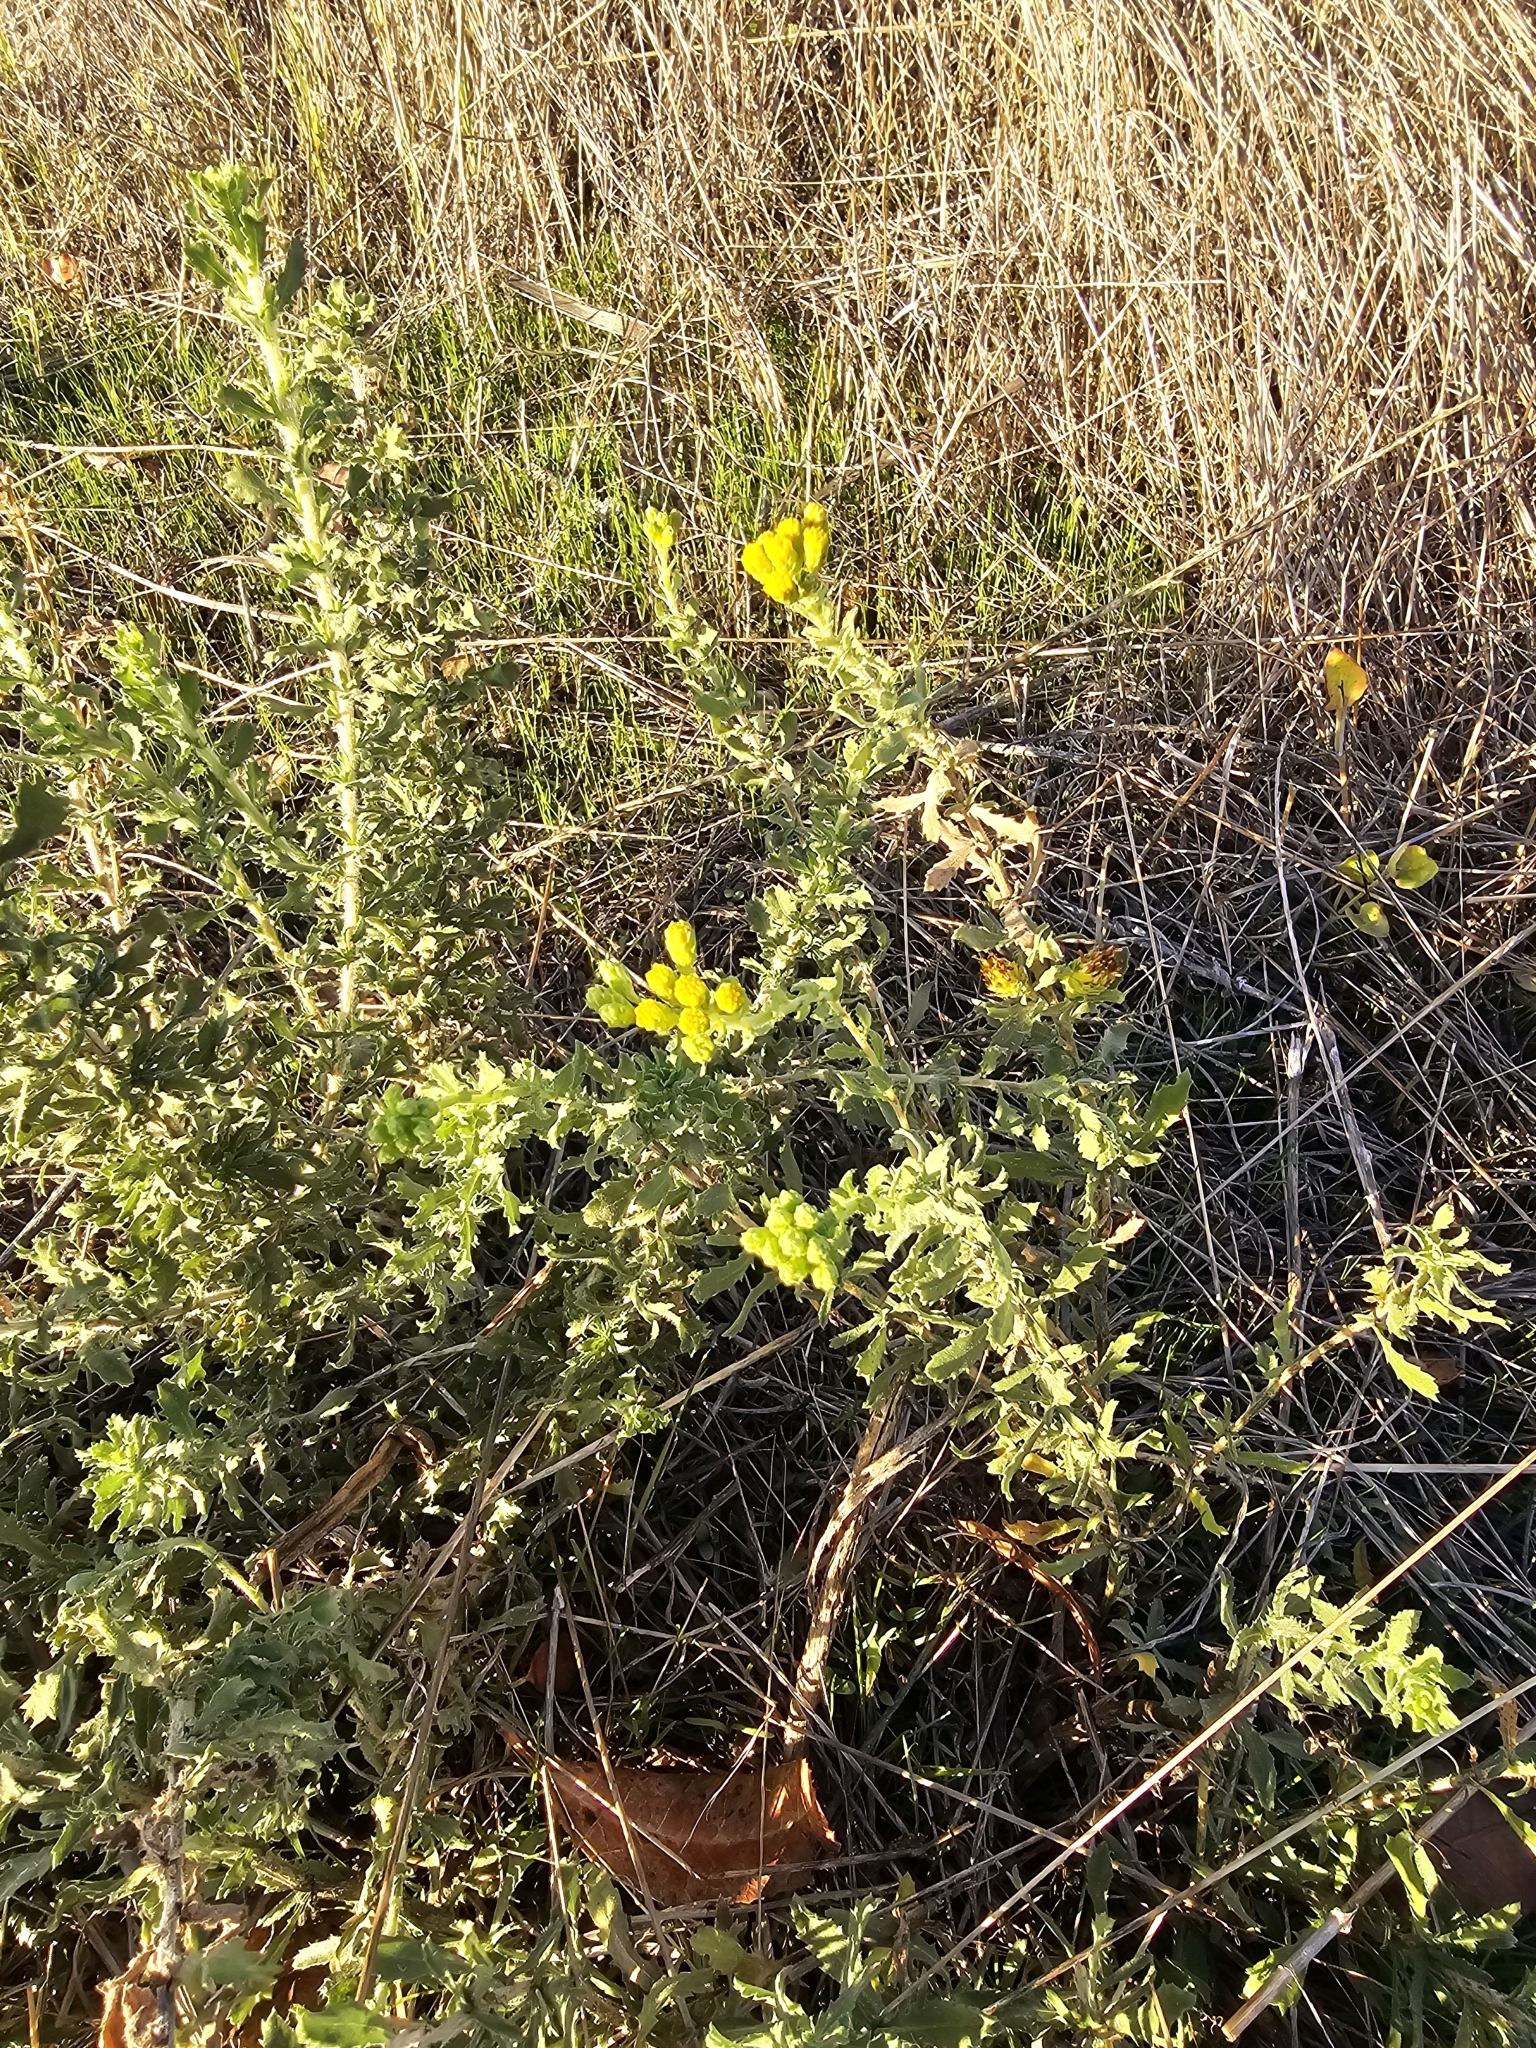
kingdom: Plantae
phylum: Tracheophyta
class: Magnoliopsida
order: Asterales
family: Asteraceae
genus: Isocoma
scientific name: Isocoma menziesii
